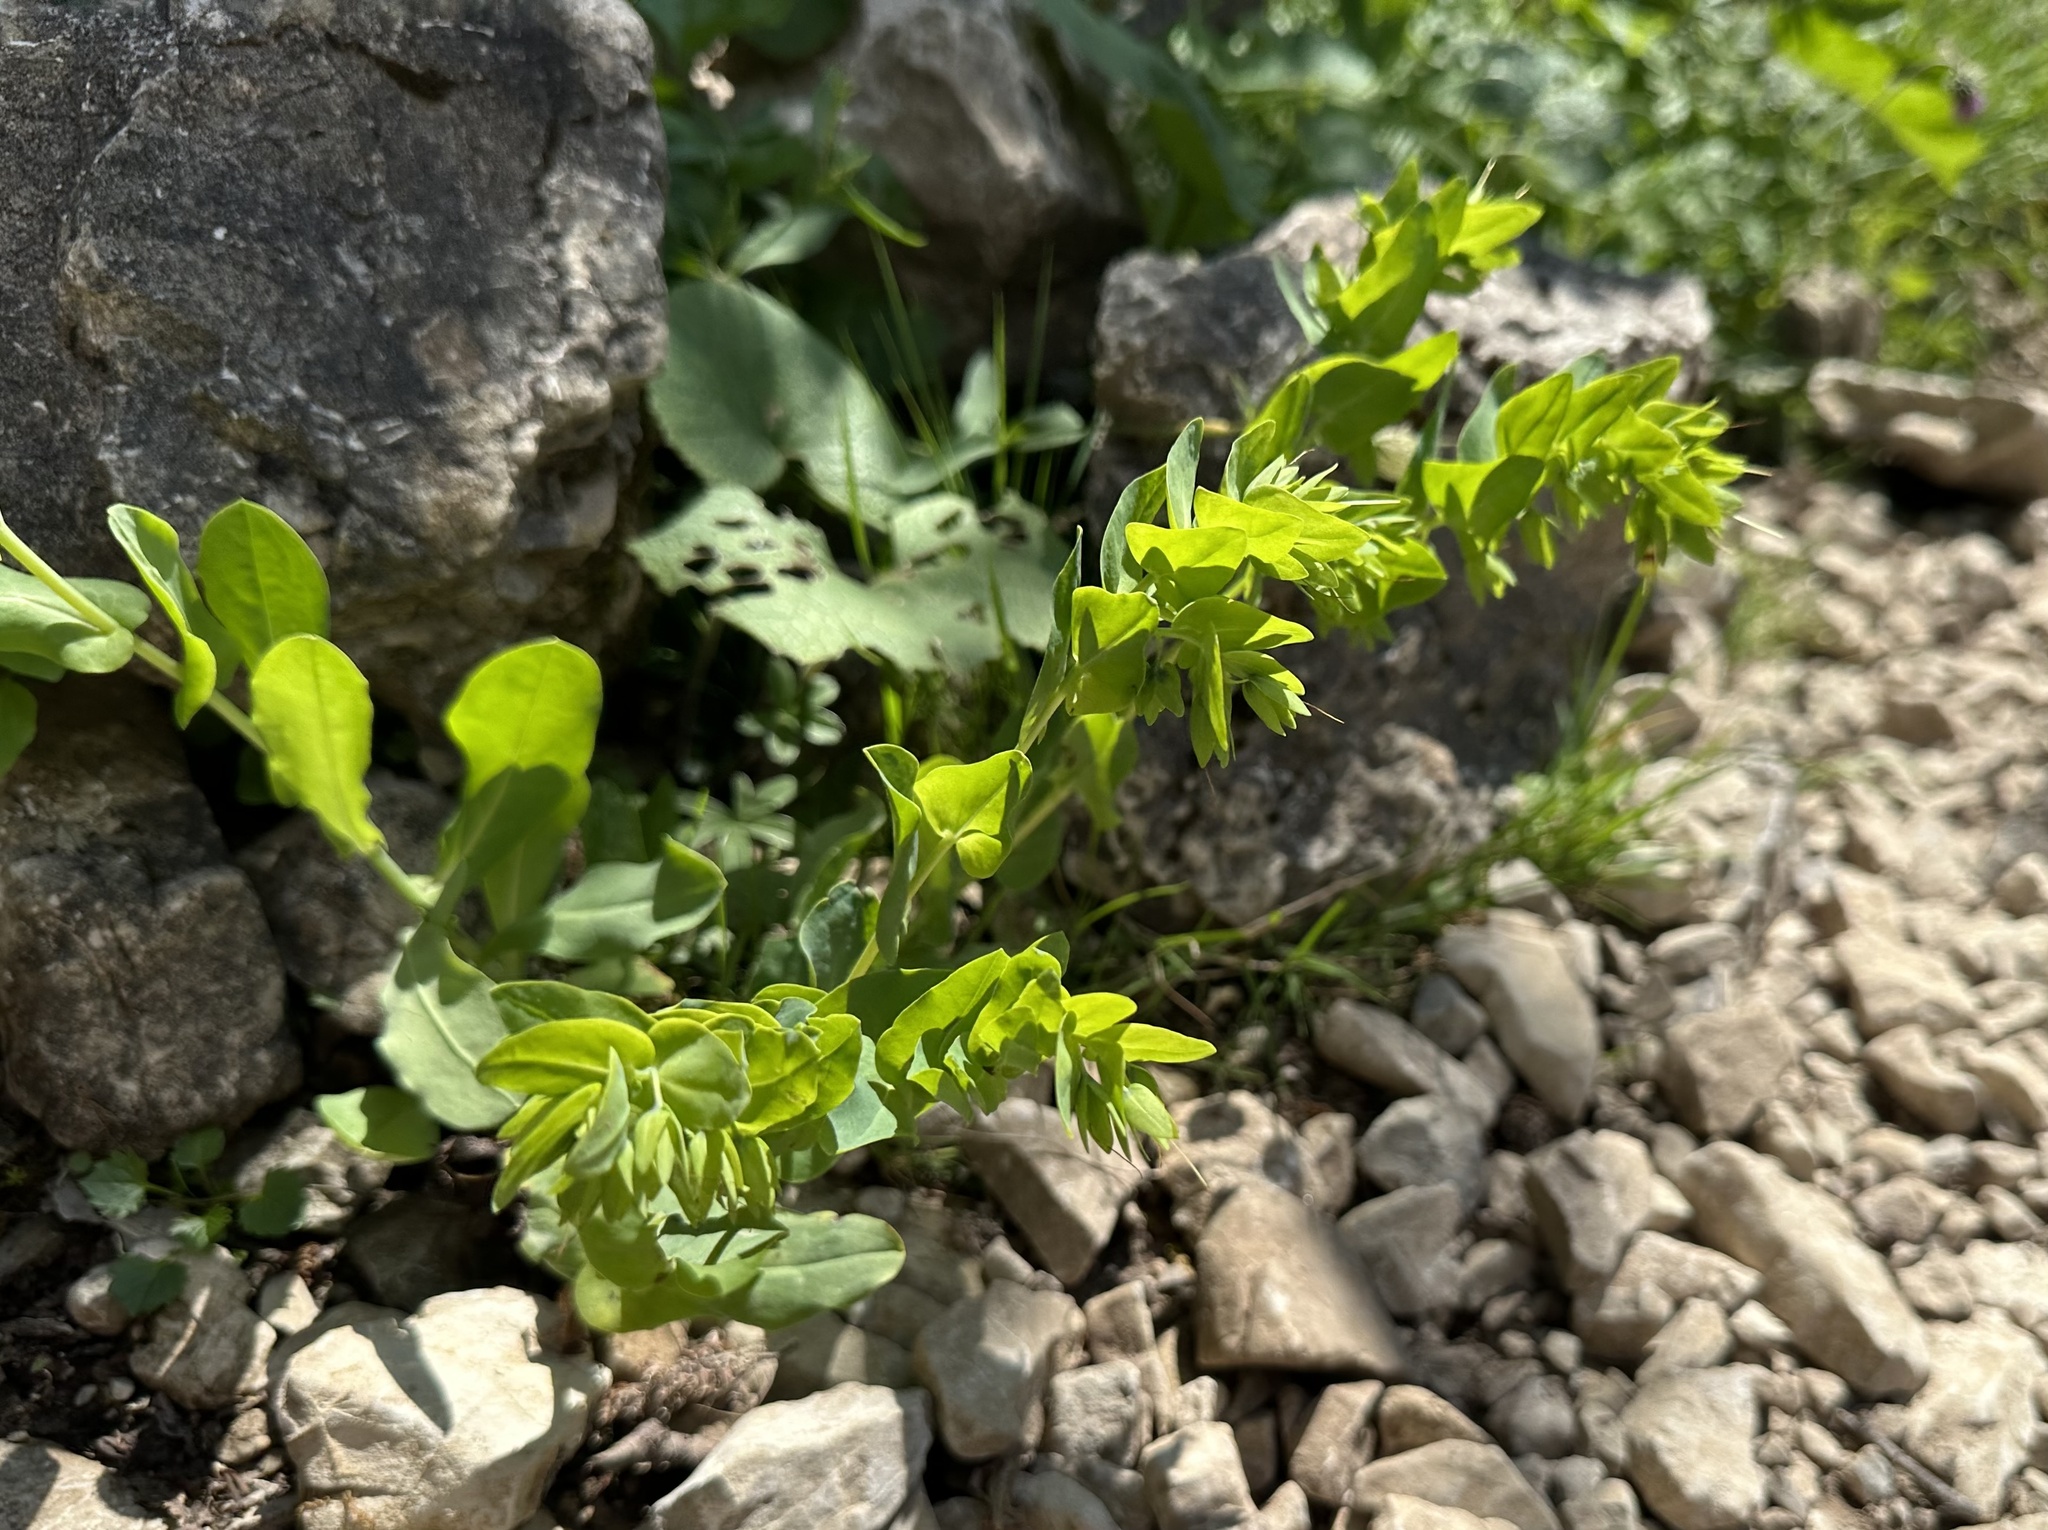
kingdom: Plantae
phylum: Tracheophyta
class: Magnoliopsida
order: Boraginales
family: Boraginaceae
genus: Cerinthe
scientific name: Cerinthe minor
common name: Lesser honeywort
